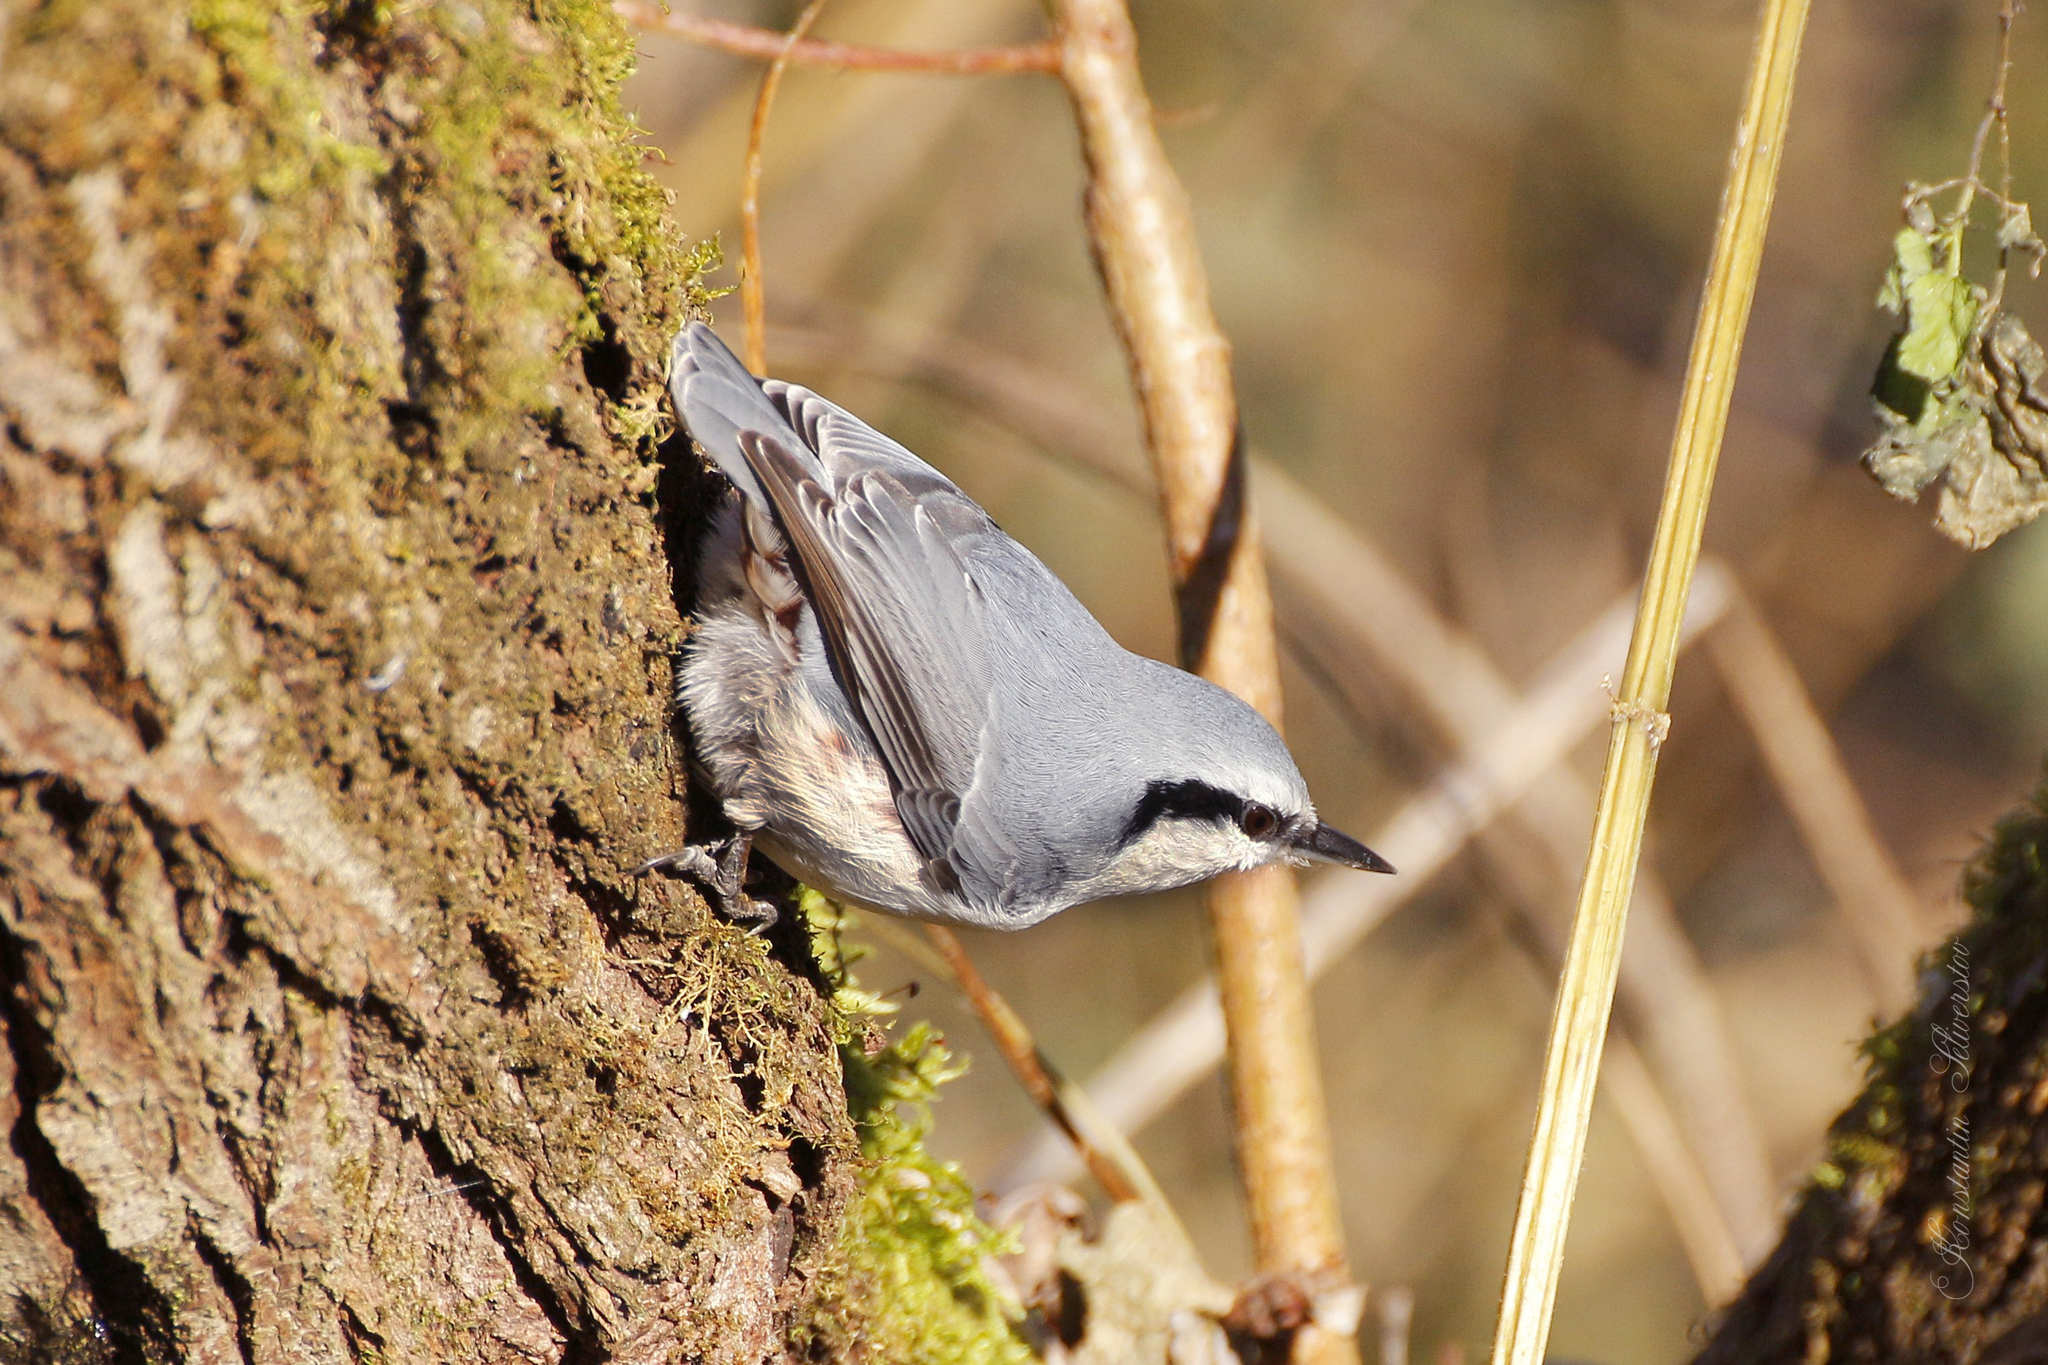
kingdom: Animalia
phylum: Chordata
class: Aves
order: Passeriformes
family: Sittidae
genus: Sitta
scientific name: Sitta europaea
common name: Eurasian nuthatch
